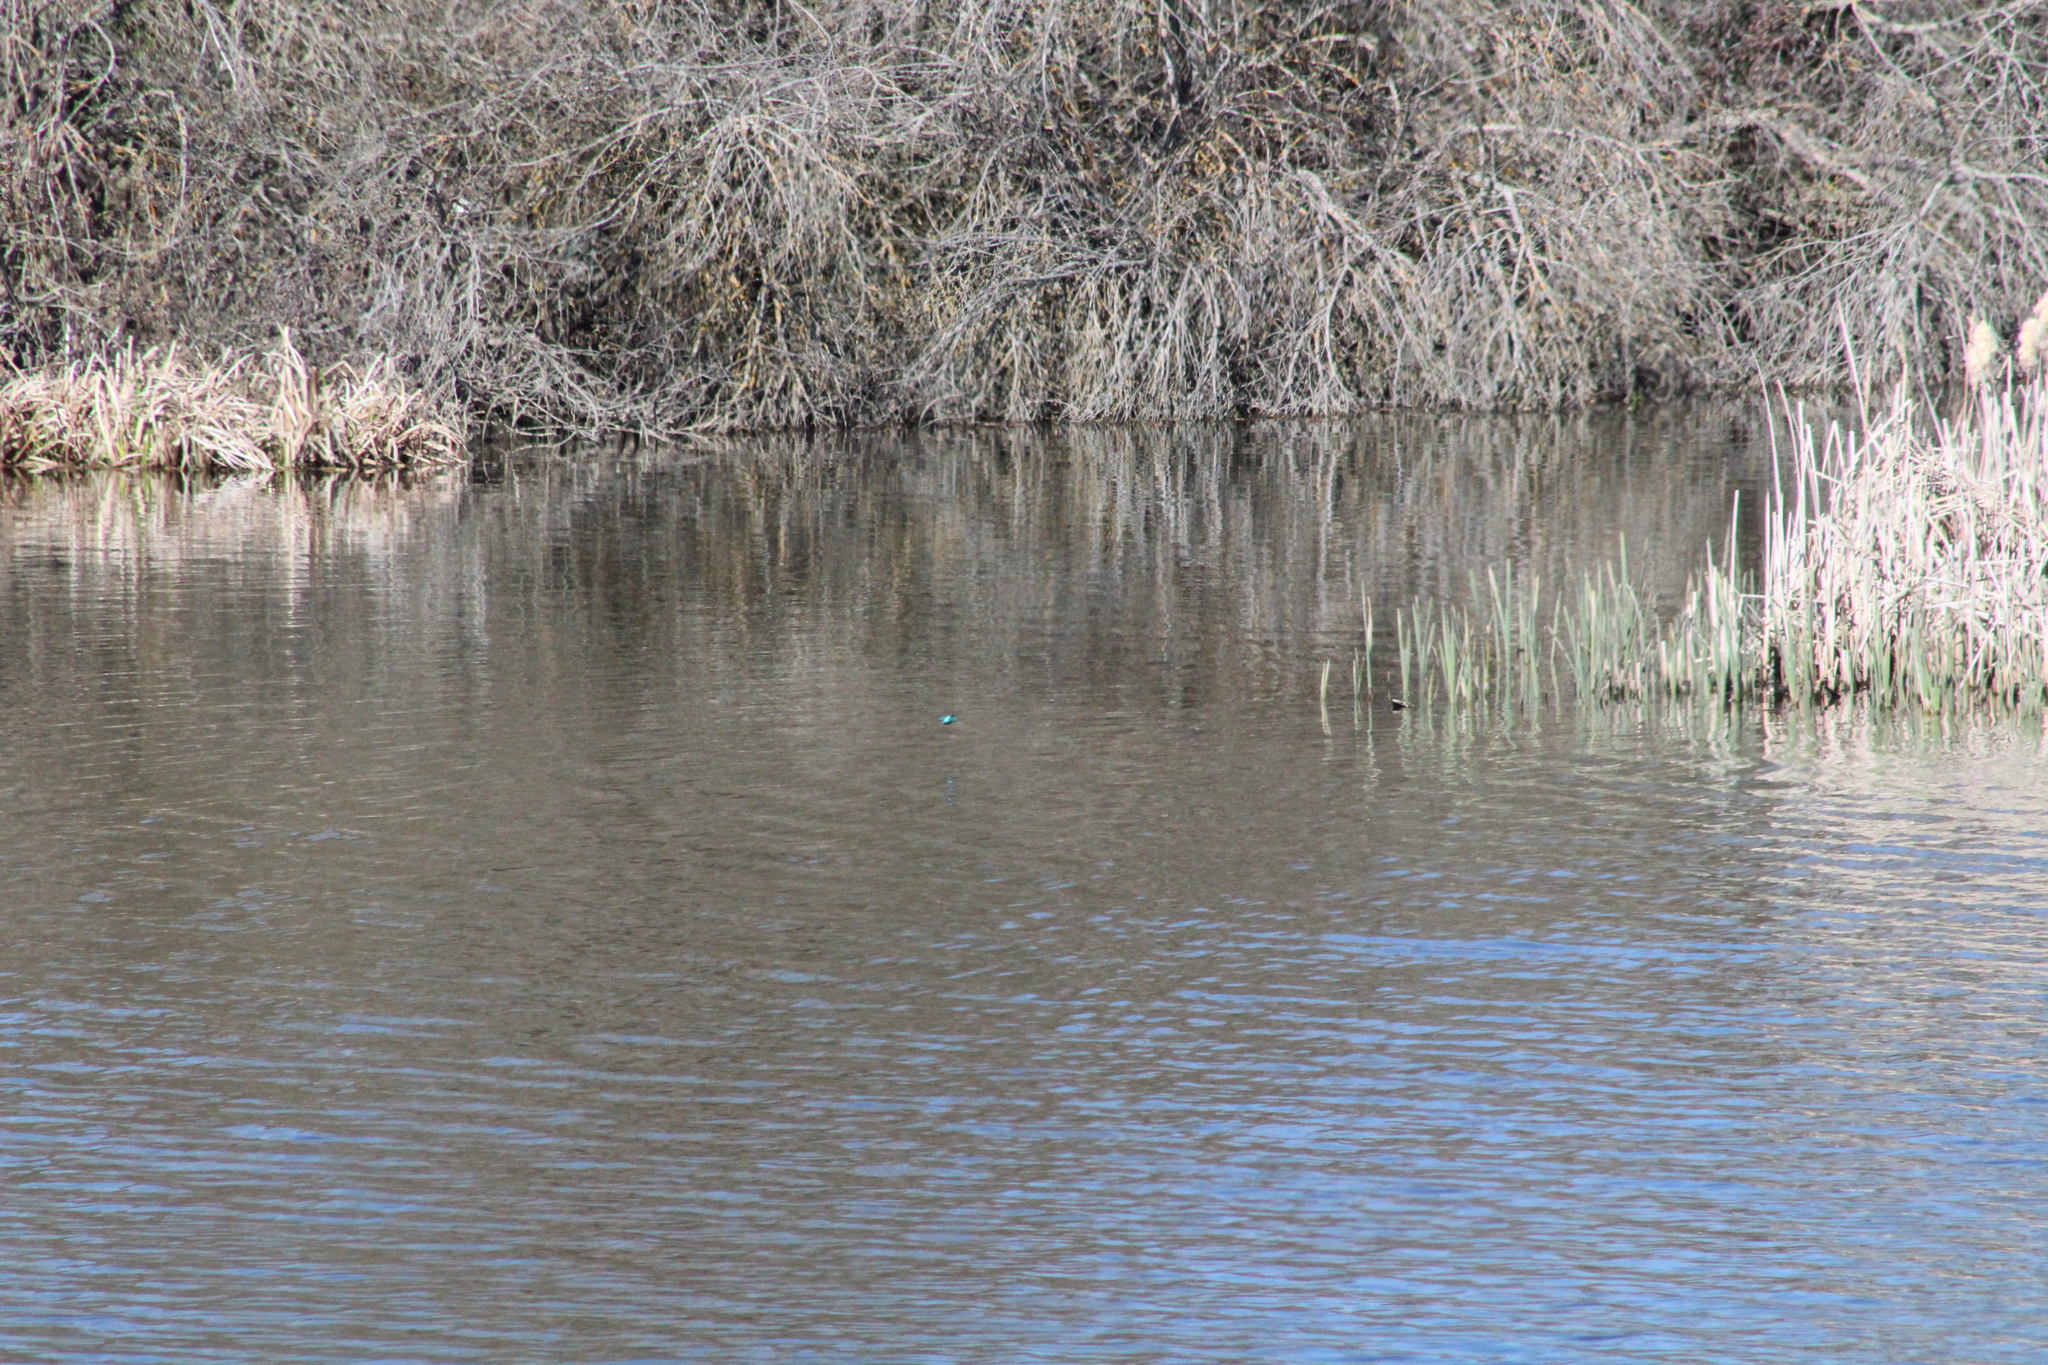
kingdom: Animalia
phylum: Chordata
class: Aves
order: Coraciiformes
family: Alcedinidae
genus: Alcedo
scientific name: Alcedo atthis
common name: Common kingfisher
